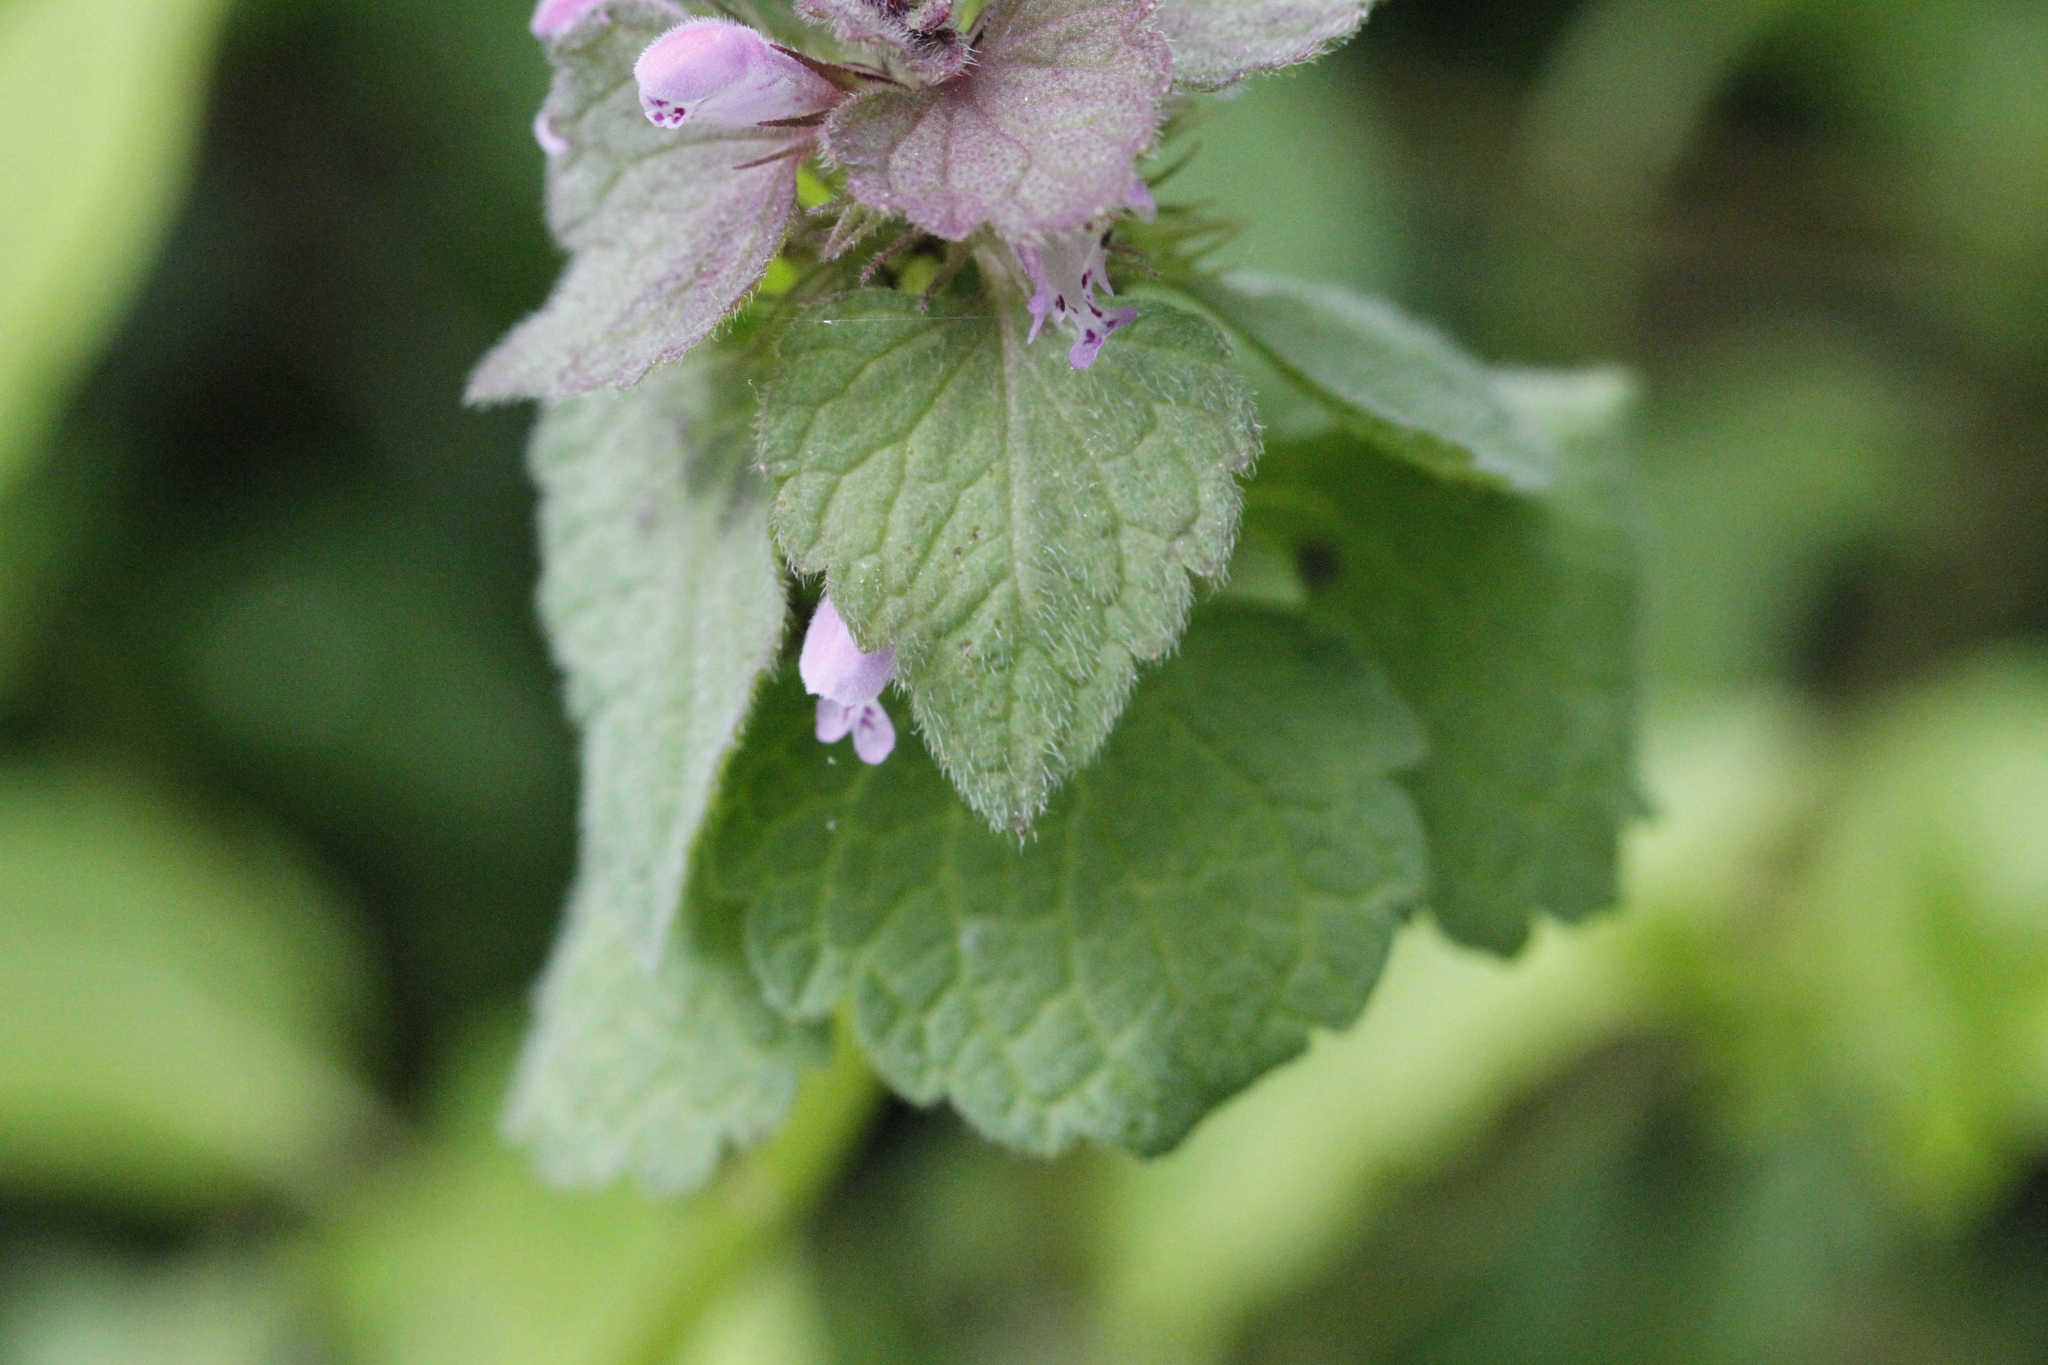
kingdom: Plantae
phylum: Tracheophyta
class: Magnoliopsida
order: Lamiales
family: Lamiaceae
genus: Lamium
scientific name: Lamium purpureum
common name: Red dead-nettle
